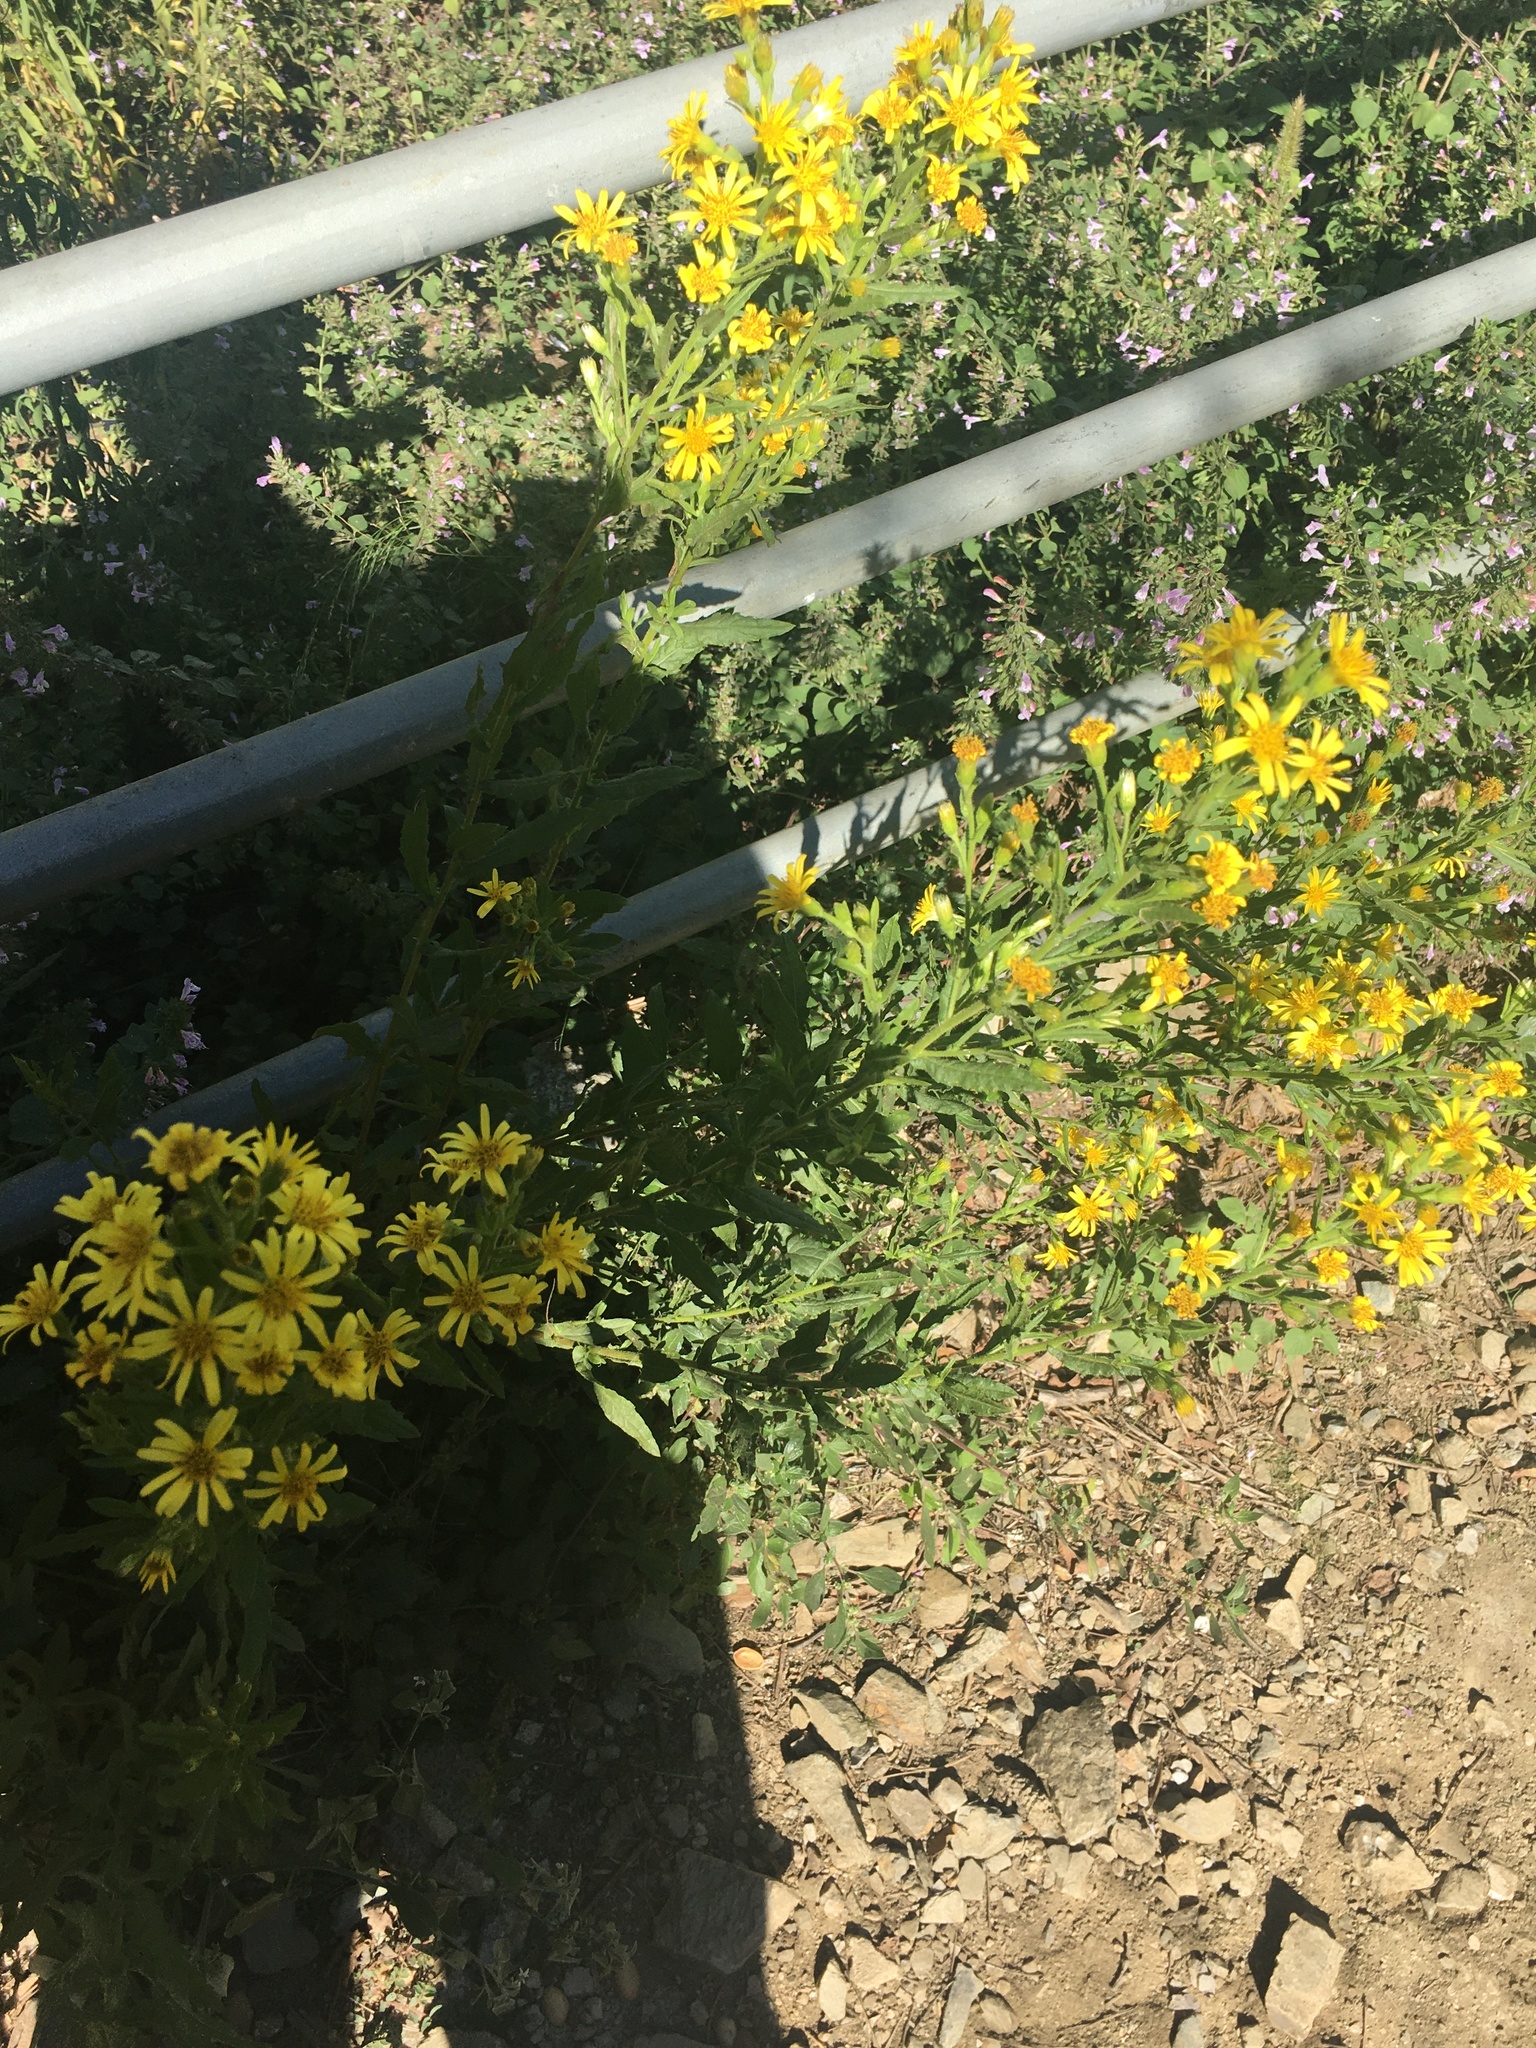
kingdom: Plantae
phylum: Tracheophyta
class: Magnoliopsida
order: Asterales
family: Asteraceae
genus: Dittrichia
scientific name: Dittrichia viscosa
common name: Woody fleabane
